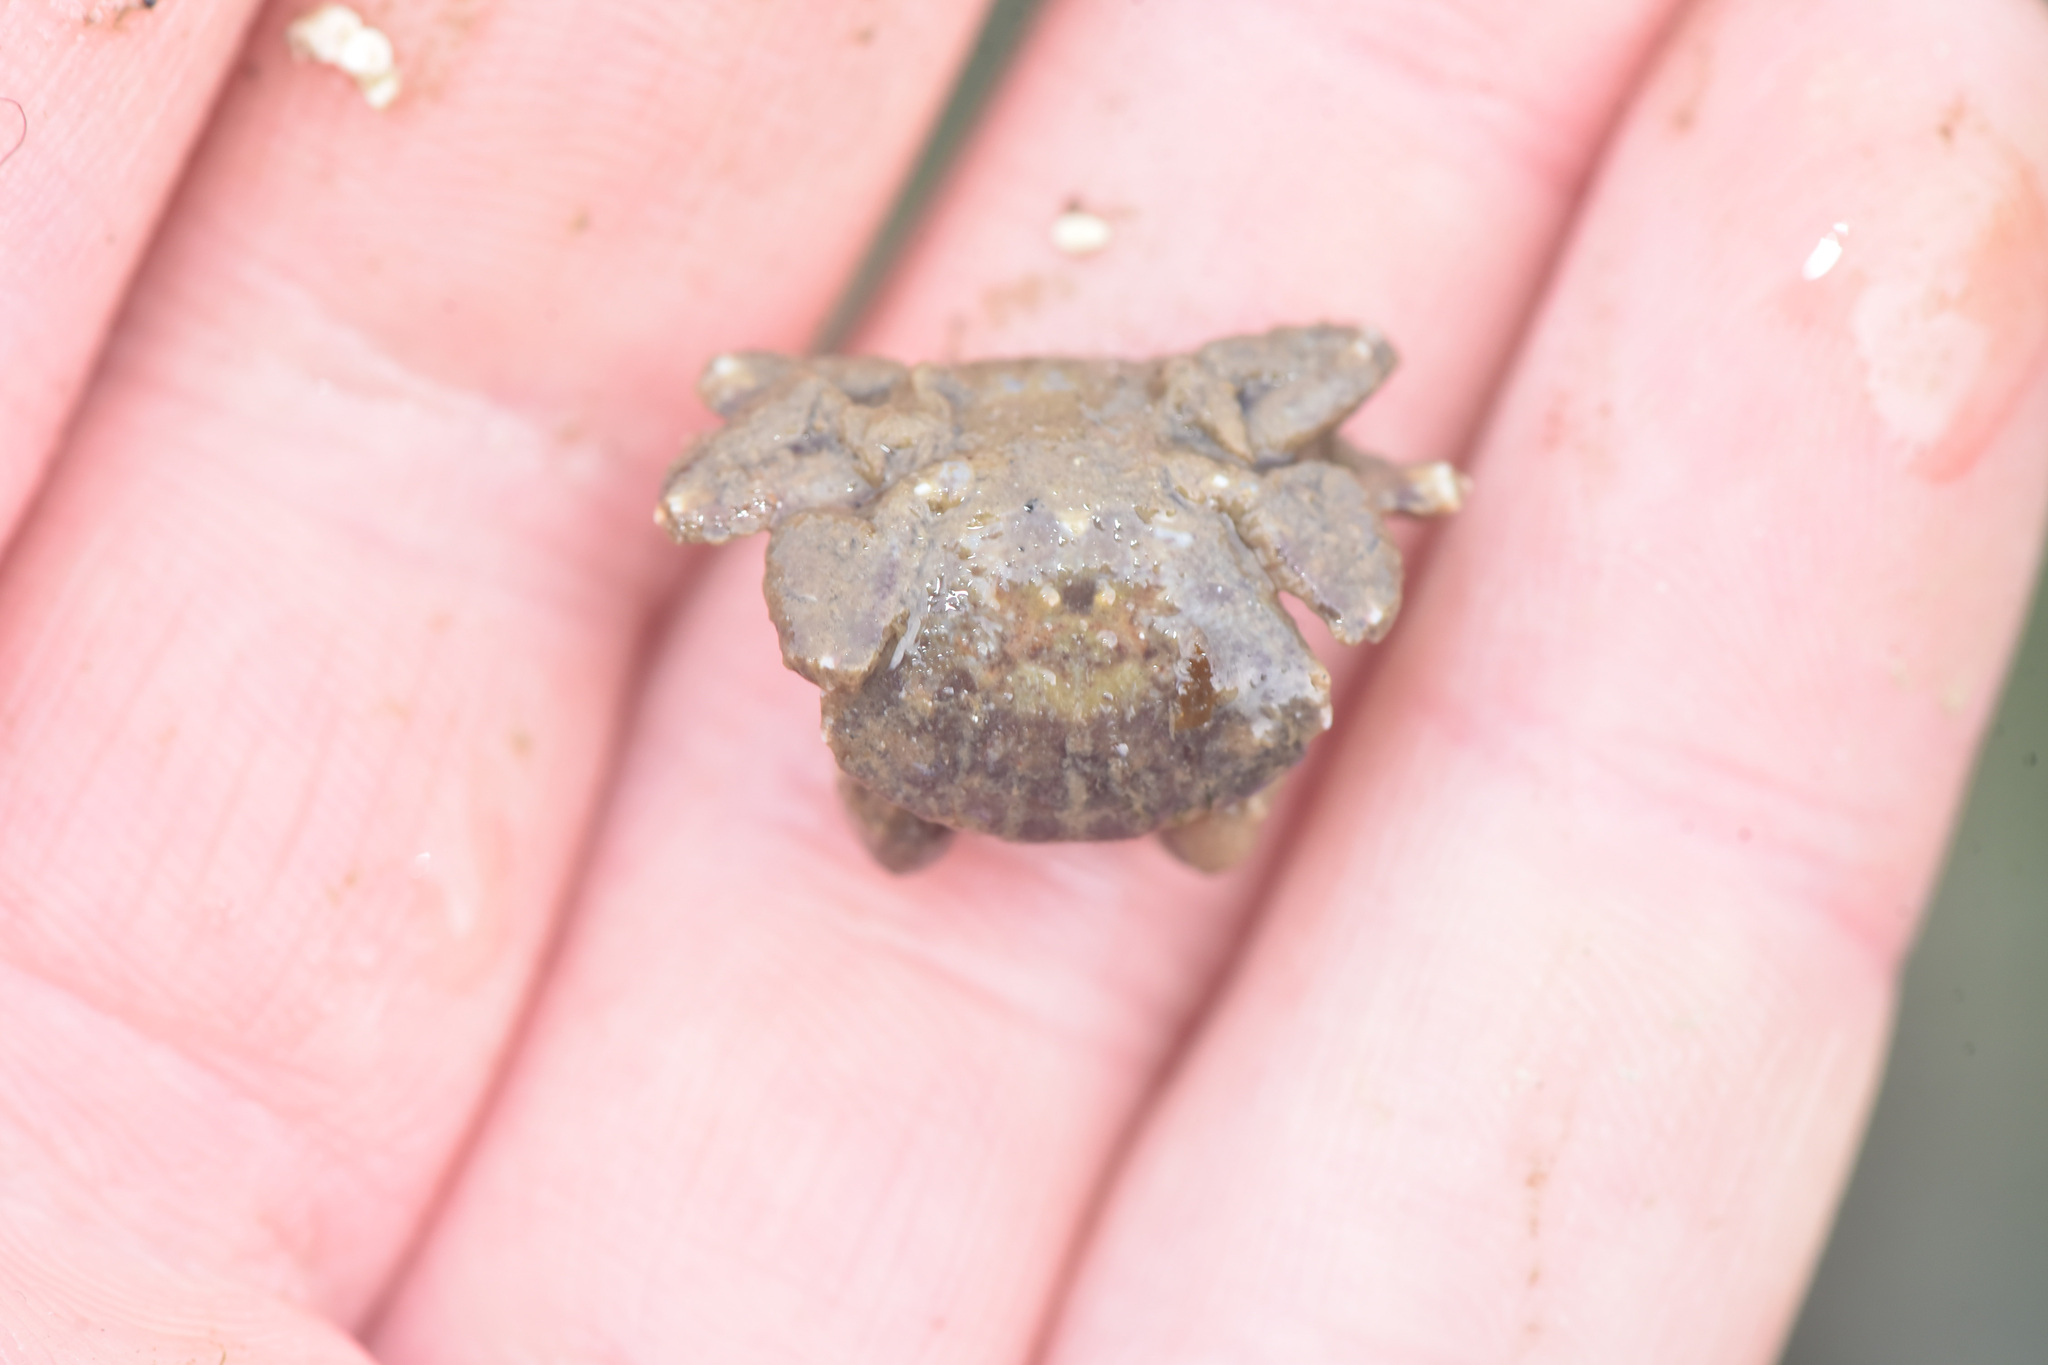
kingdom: Animalia
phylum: Arthropoda
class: Malacostraca
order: Decapoda
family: Panopeidae
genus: Lophopanopeus
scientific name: Lophopanopeus bellus
